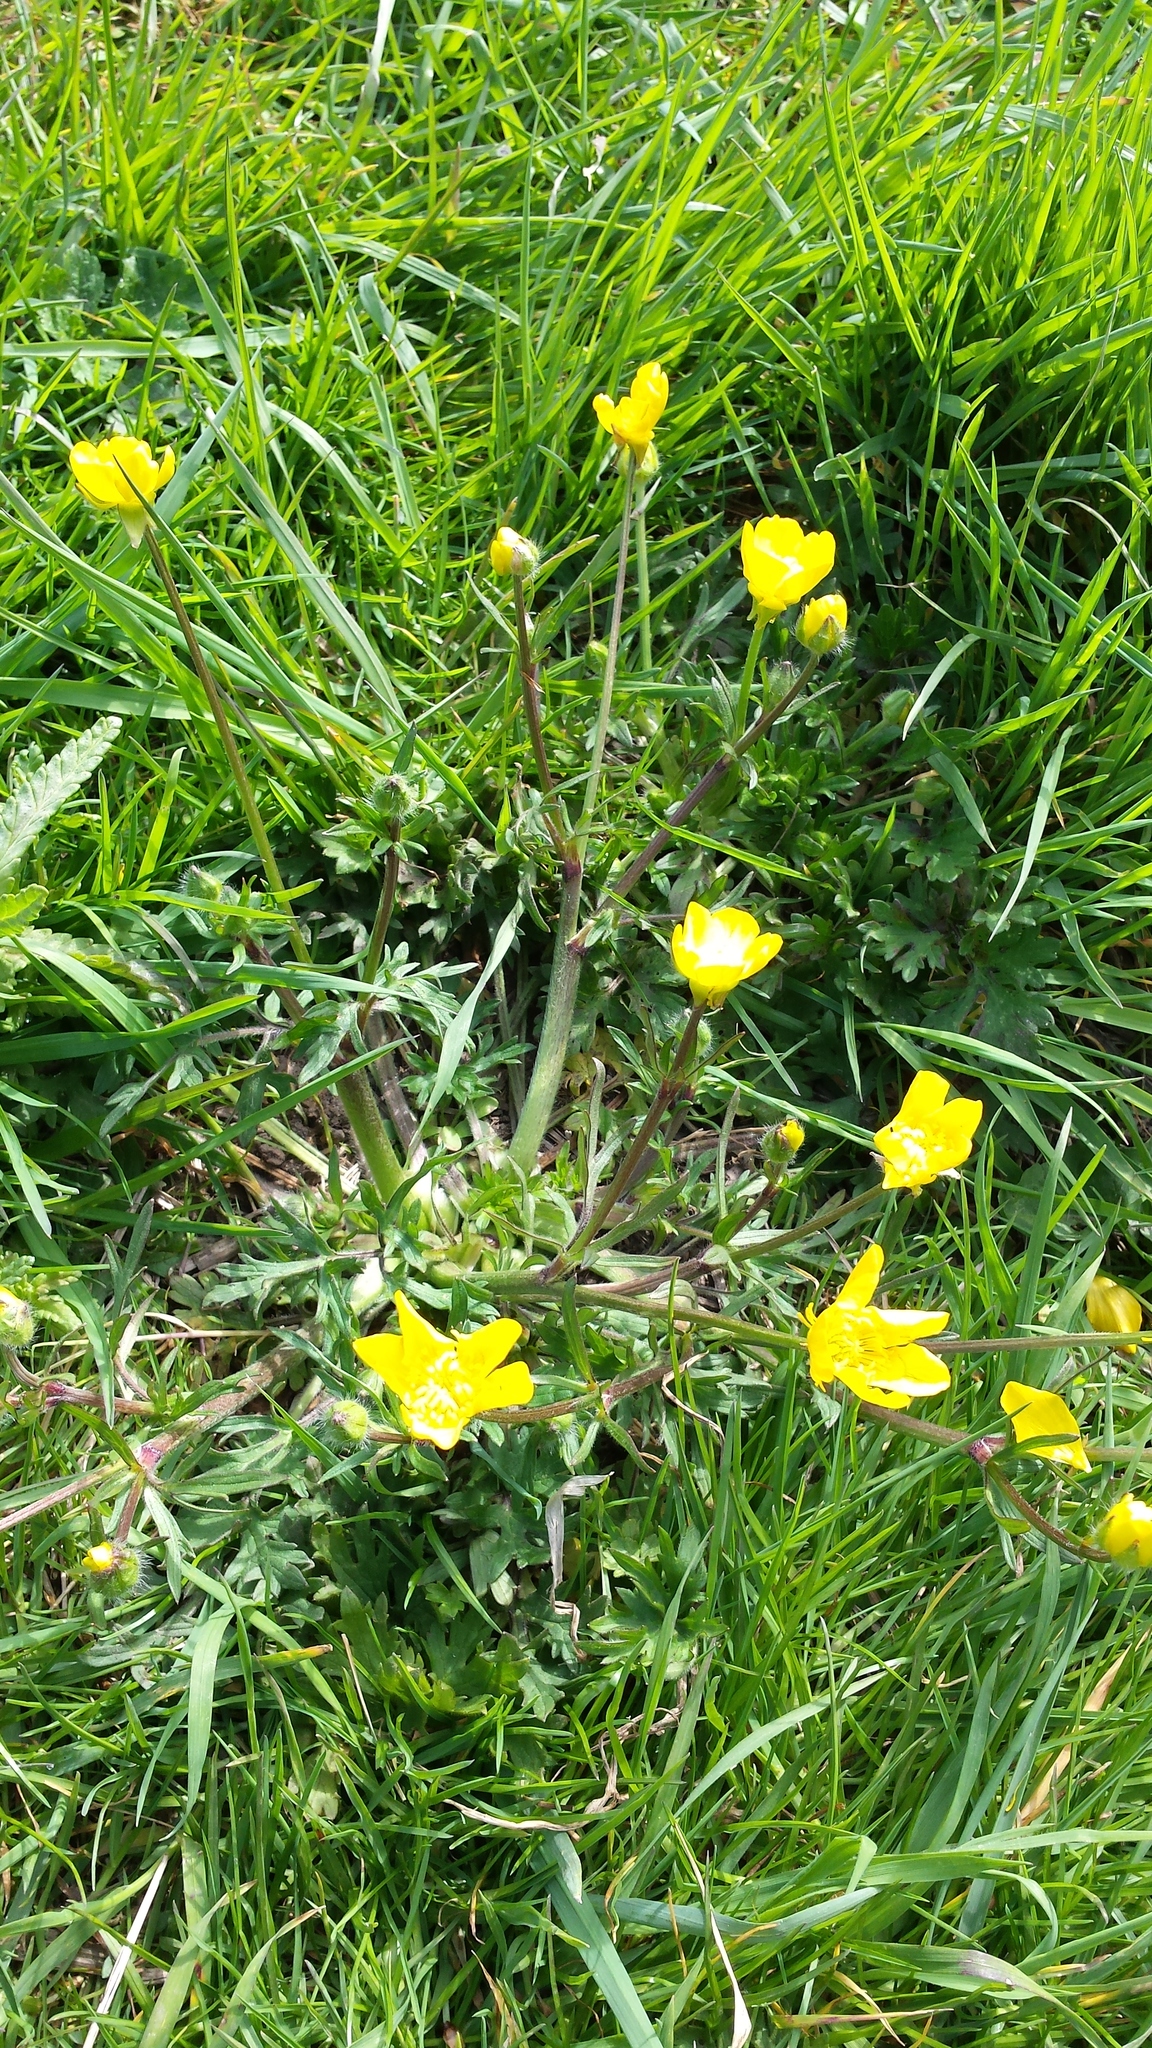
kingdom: Plantae
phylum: Tracheophyta
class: Magnoliopsida
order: Ranunculales
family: Ranunculaceae
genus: Ranunculus
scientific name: Ranunculus bulbosus
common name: Bulbous buttercup
